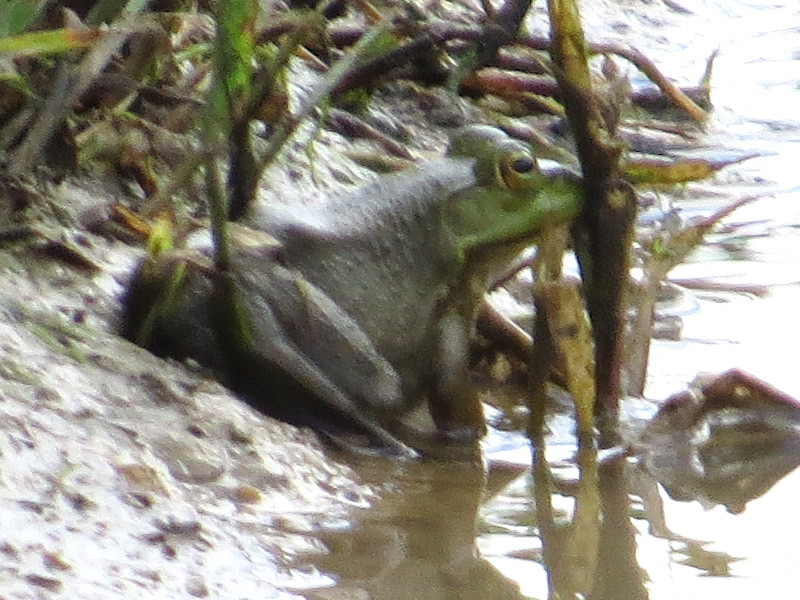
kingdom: Animalia
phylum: Chordata
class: Amphibia
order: Anura
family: Ranidae
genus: Lithobates
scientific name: Lithobates catesbeianus
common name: American bullfrog
